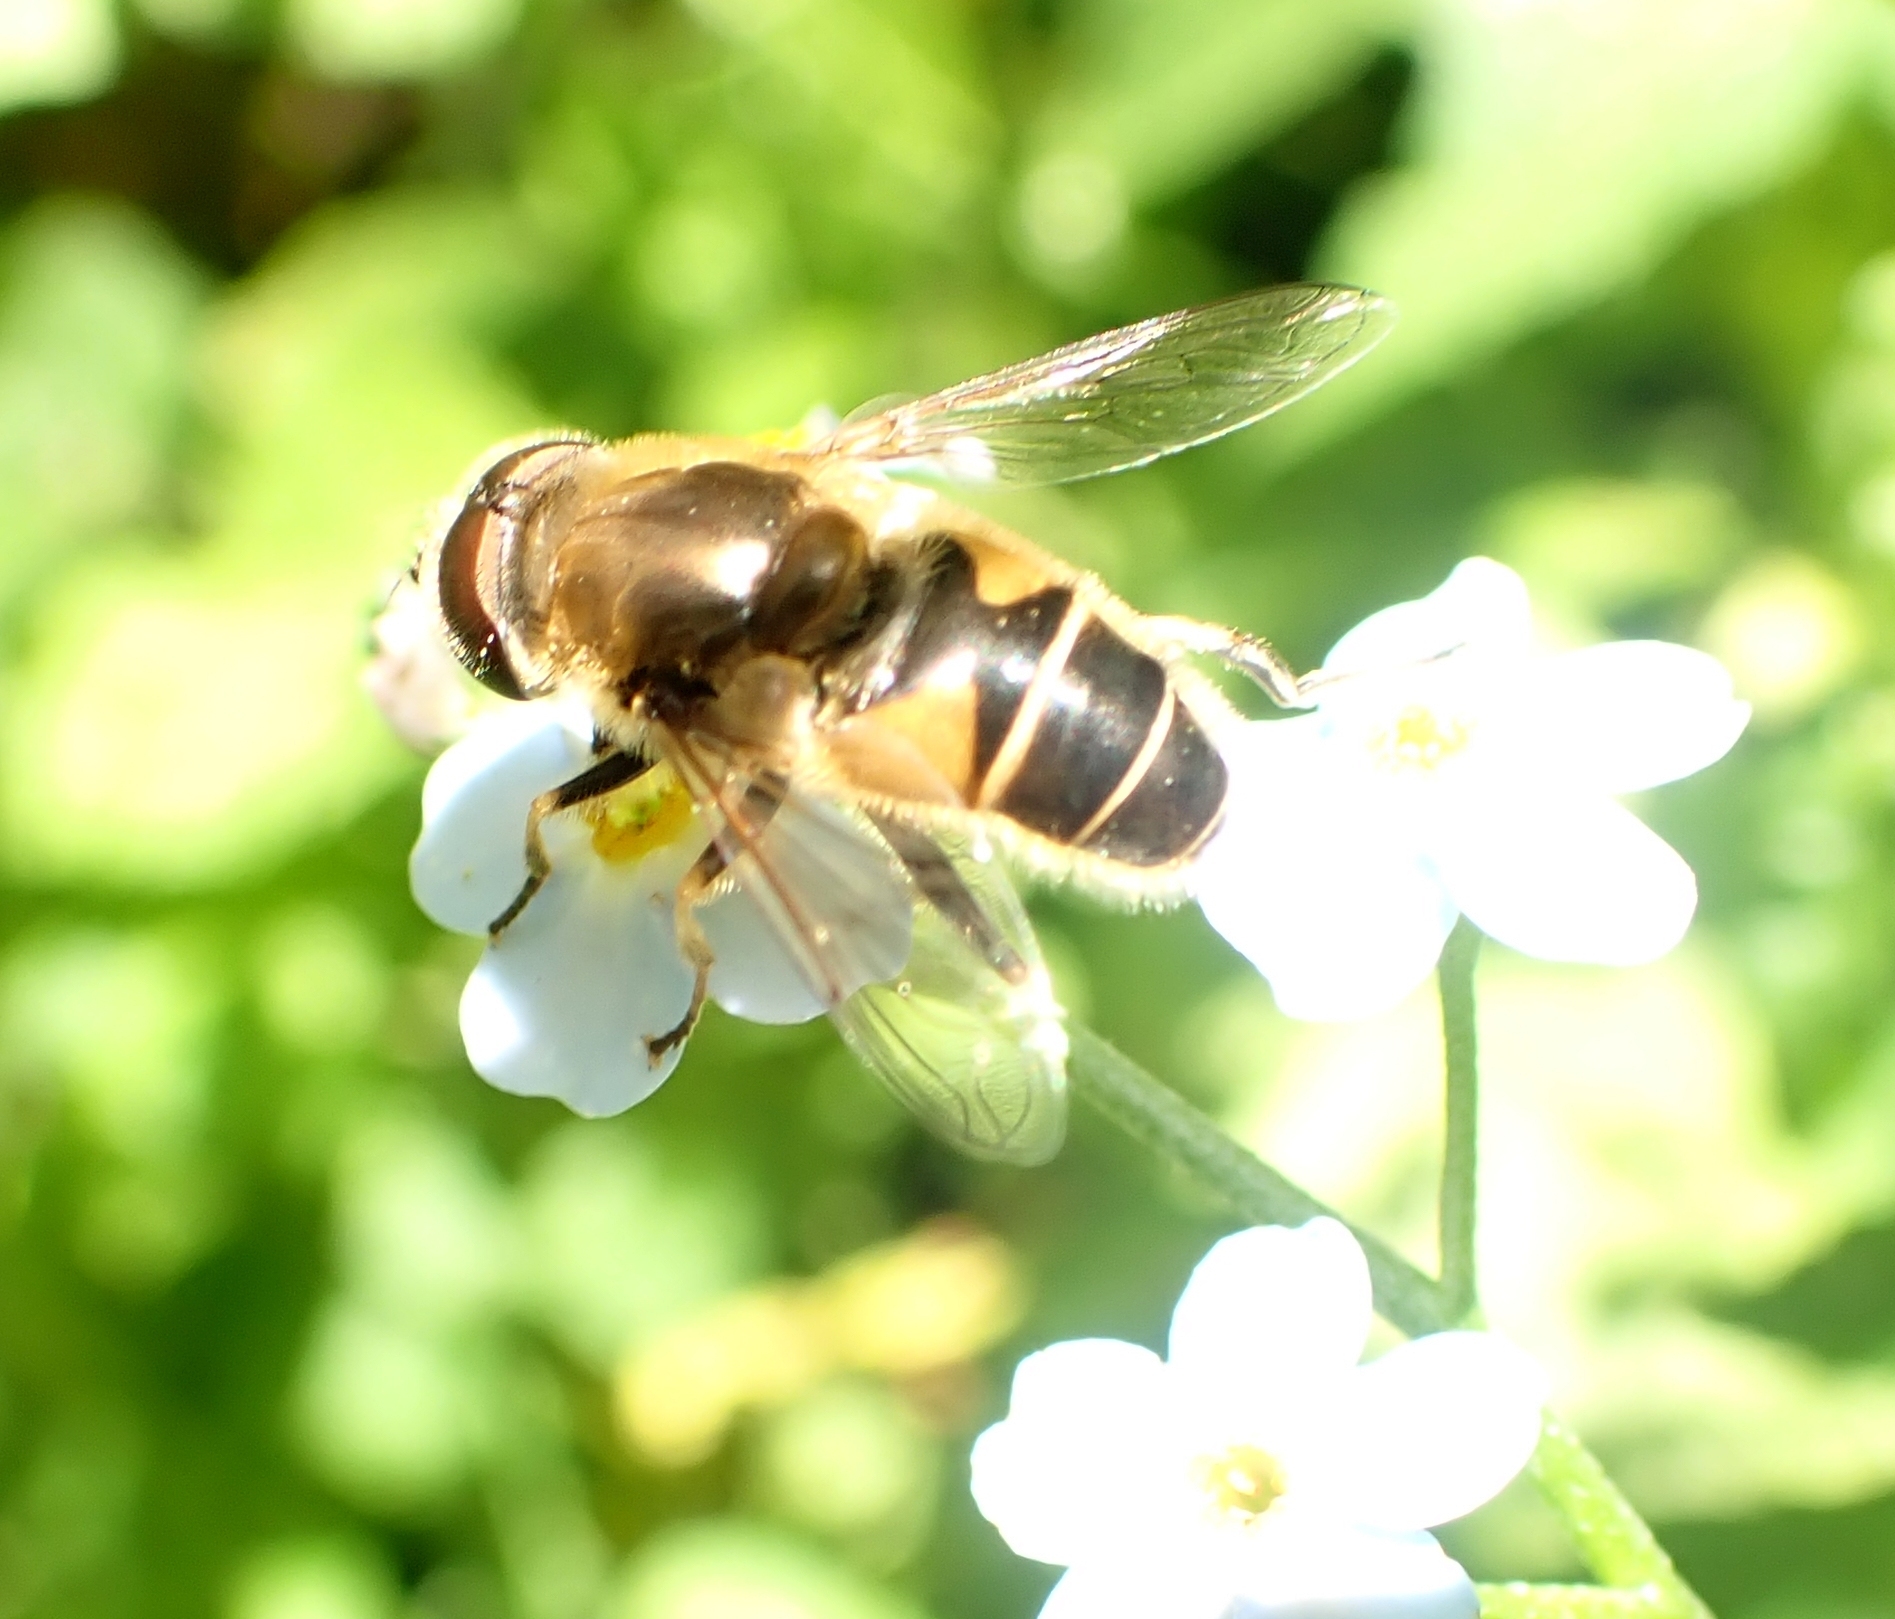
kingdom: Animalia
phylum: Arthropoda
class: Insecta
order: Diptera
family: Syrphidae
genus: Eristalis
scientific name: Eristalis nemorum
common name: Orange-spined drone fly
